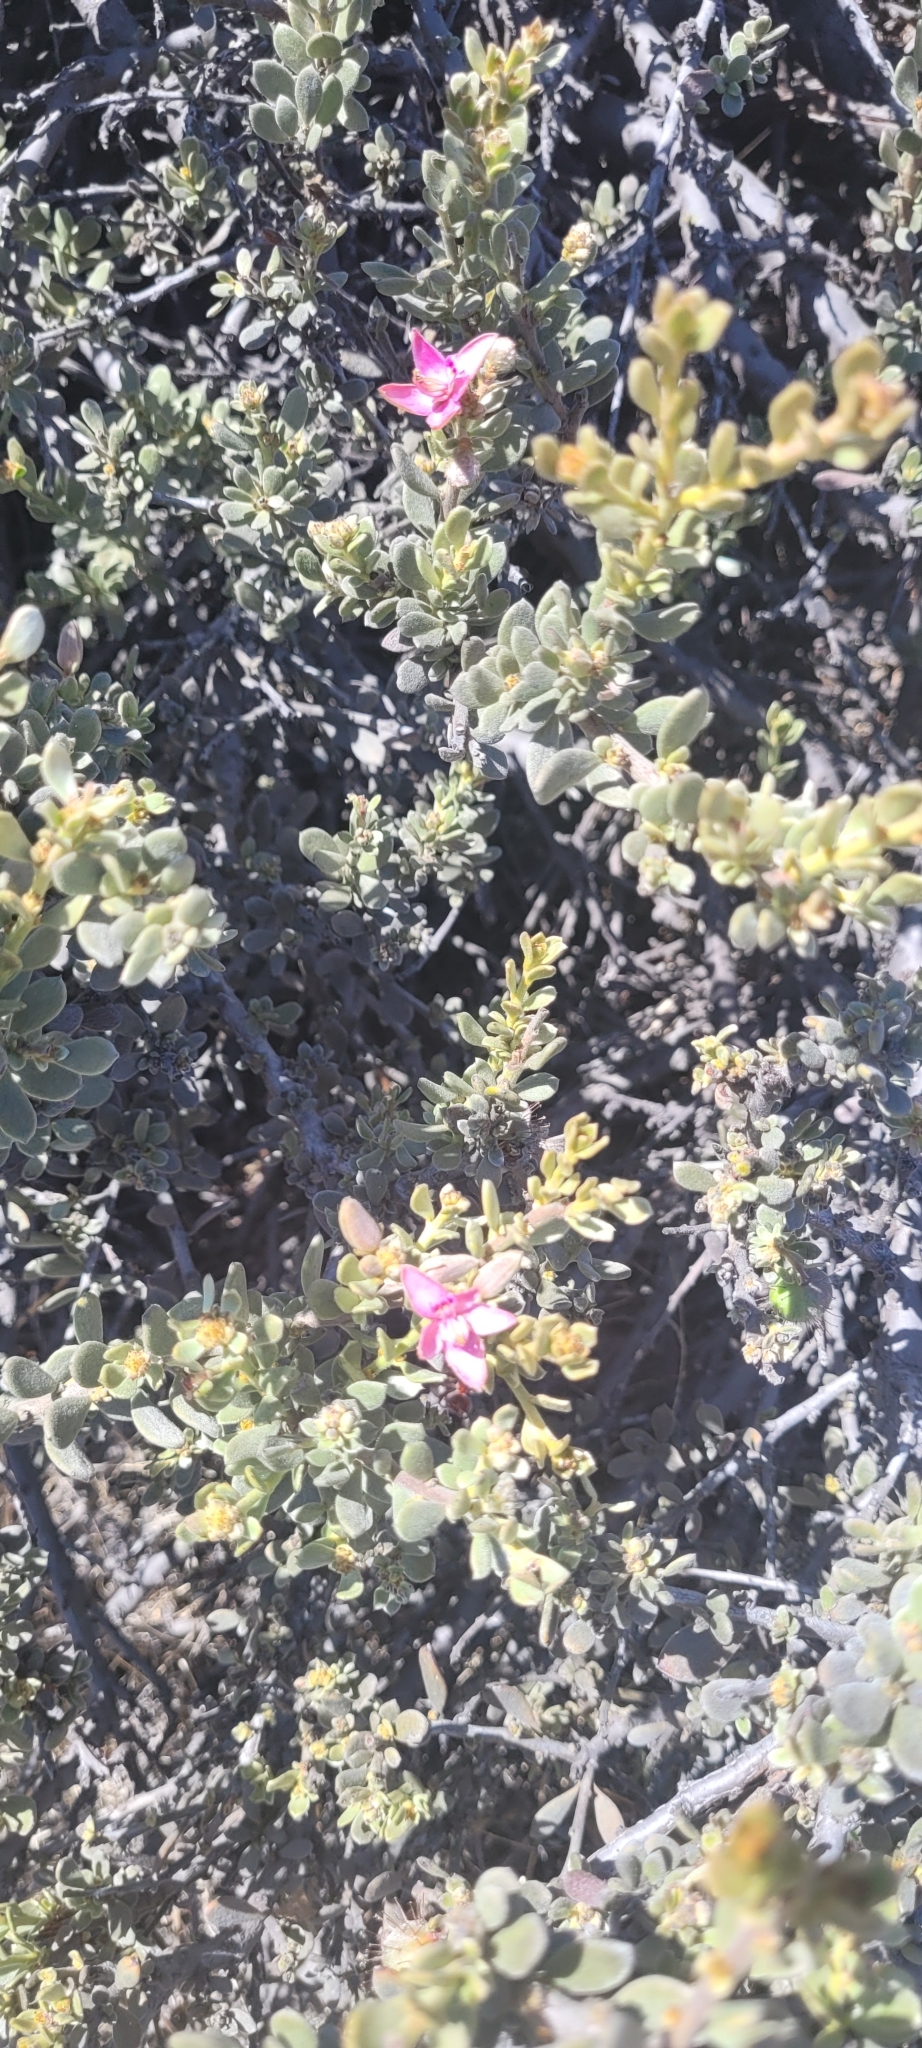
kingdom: Plantae
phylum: Tracheophyta
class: Magnoliopsida
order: Zygophyllales
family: Krameriaceae
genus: Krameria
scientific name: Krameria cistoidea
